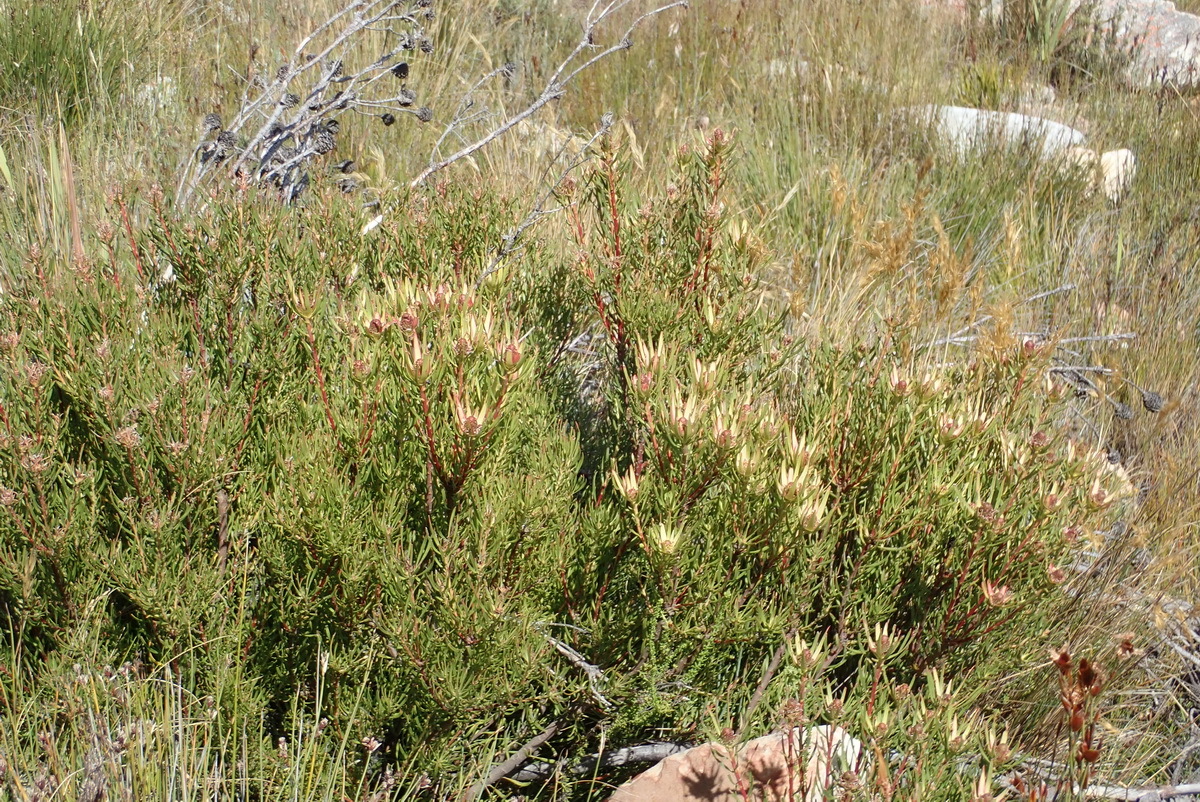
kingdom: Plantae
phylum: Tracheophyta
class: Magnoliopsida
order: Proteales
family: Proteaceae
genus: Leucadendron
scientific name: Leucadendron spissifolium
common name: Spear-leaf conebush
